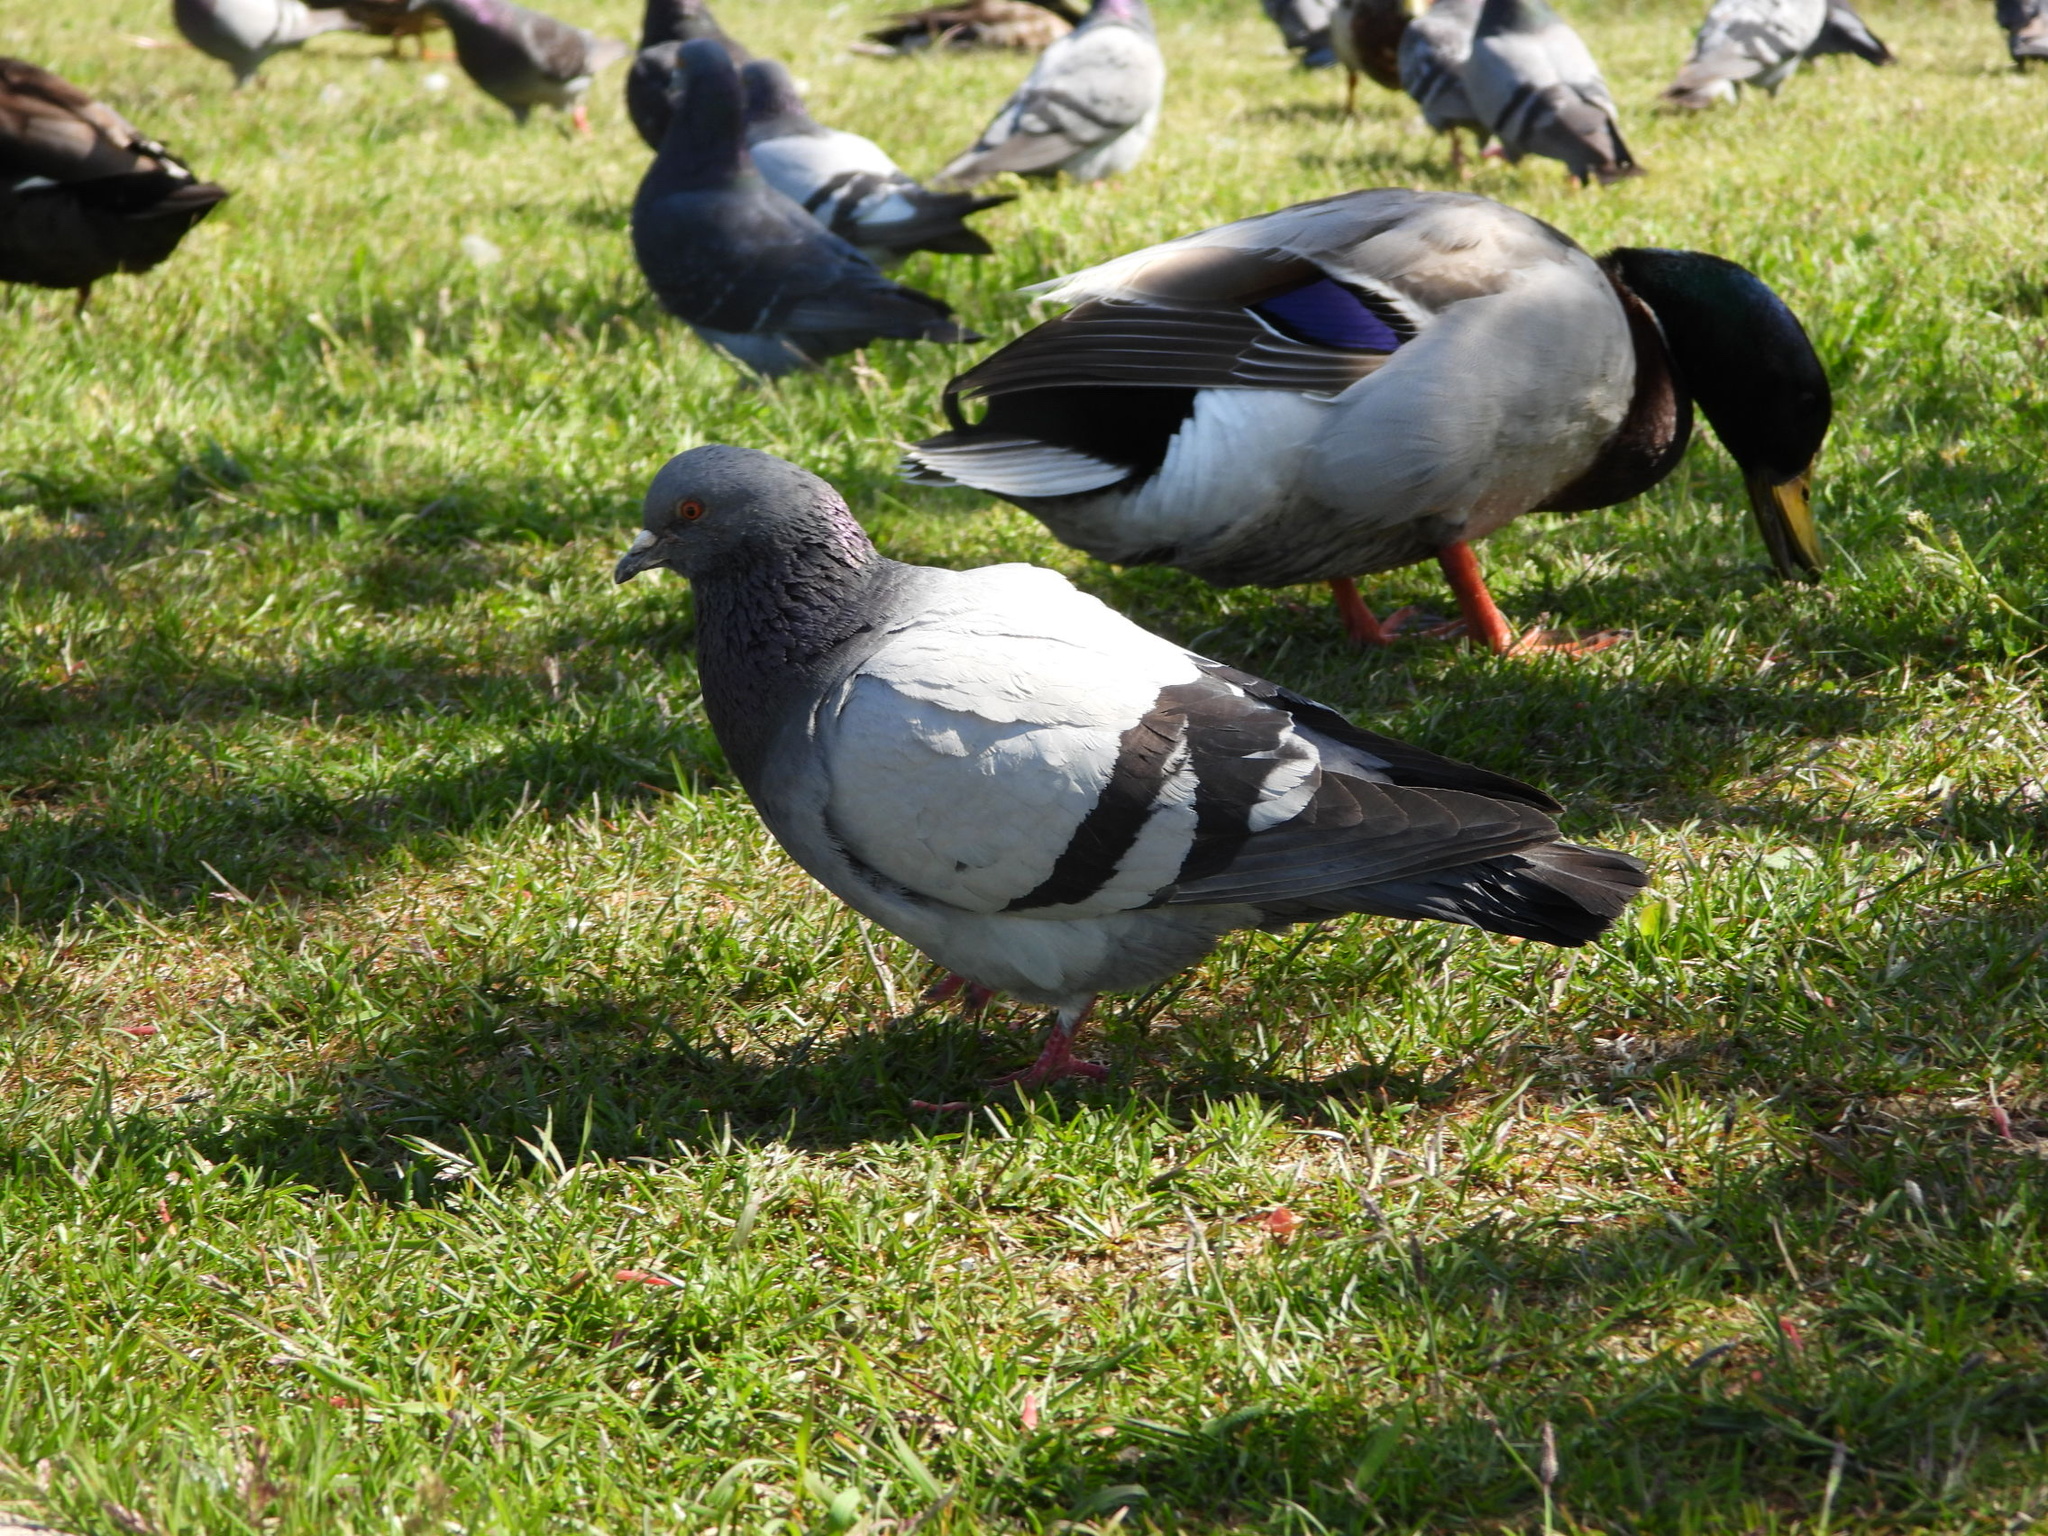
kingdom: Animalia
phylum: Chordata
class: Aves
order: Columbiformes
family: Columbidae
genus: Columba
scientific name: Columba livia
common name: Rock pigeon
